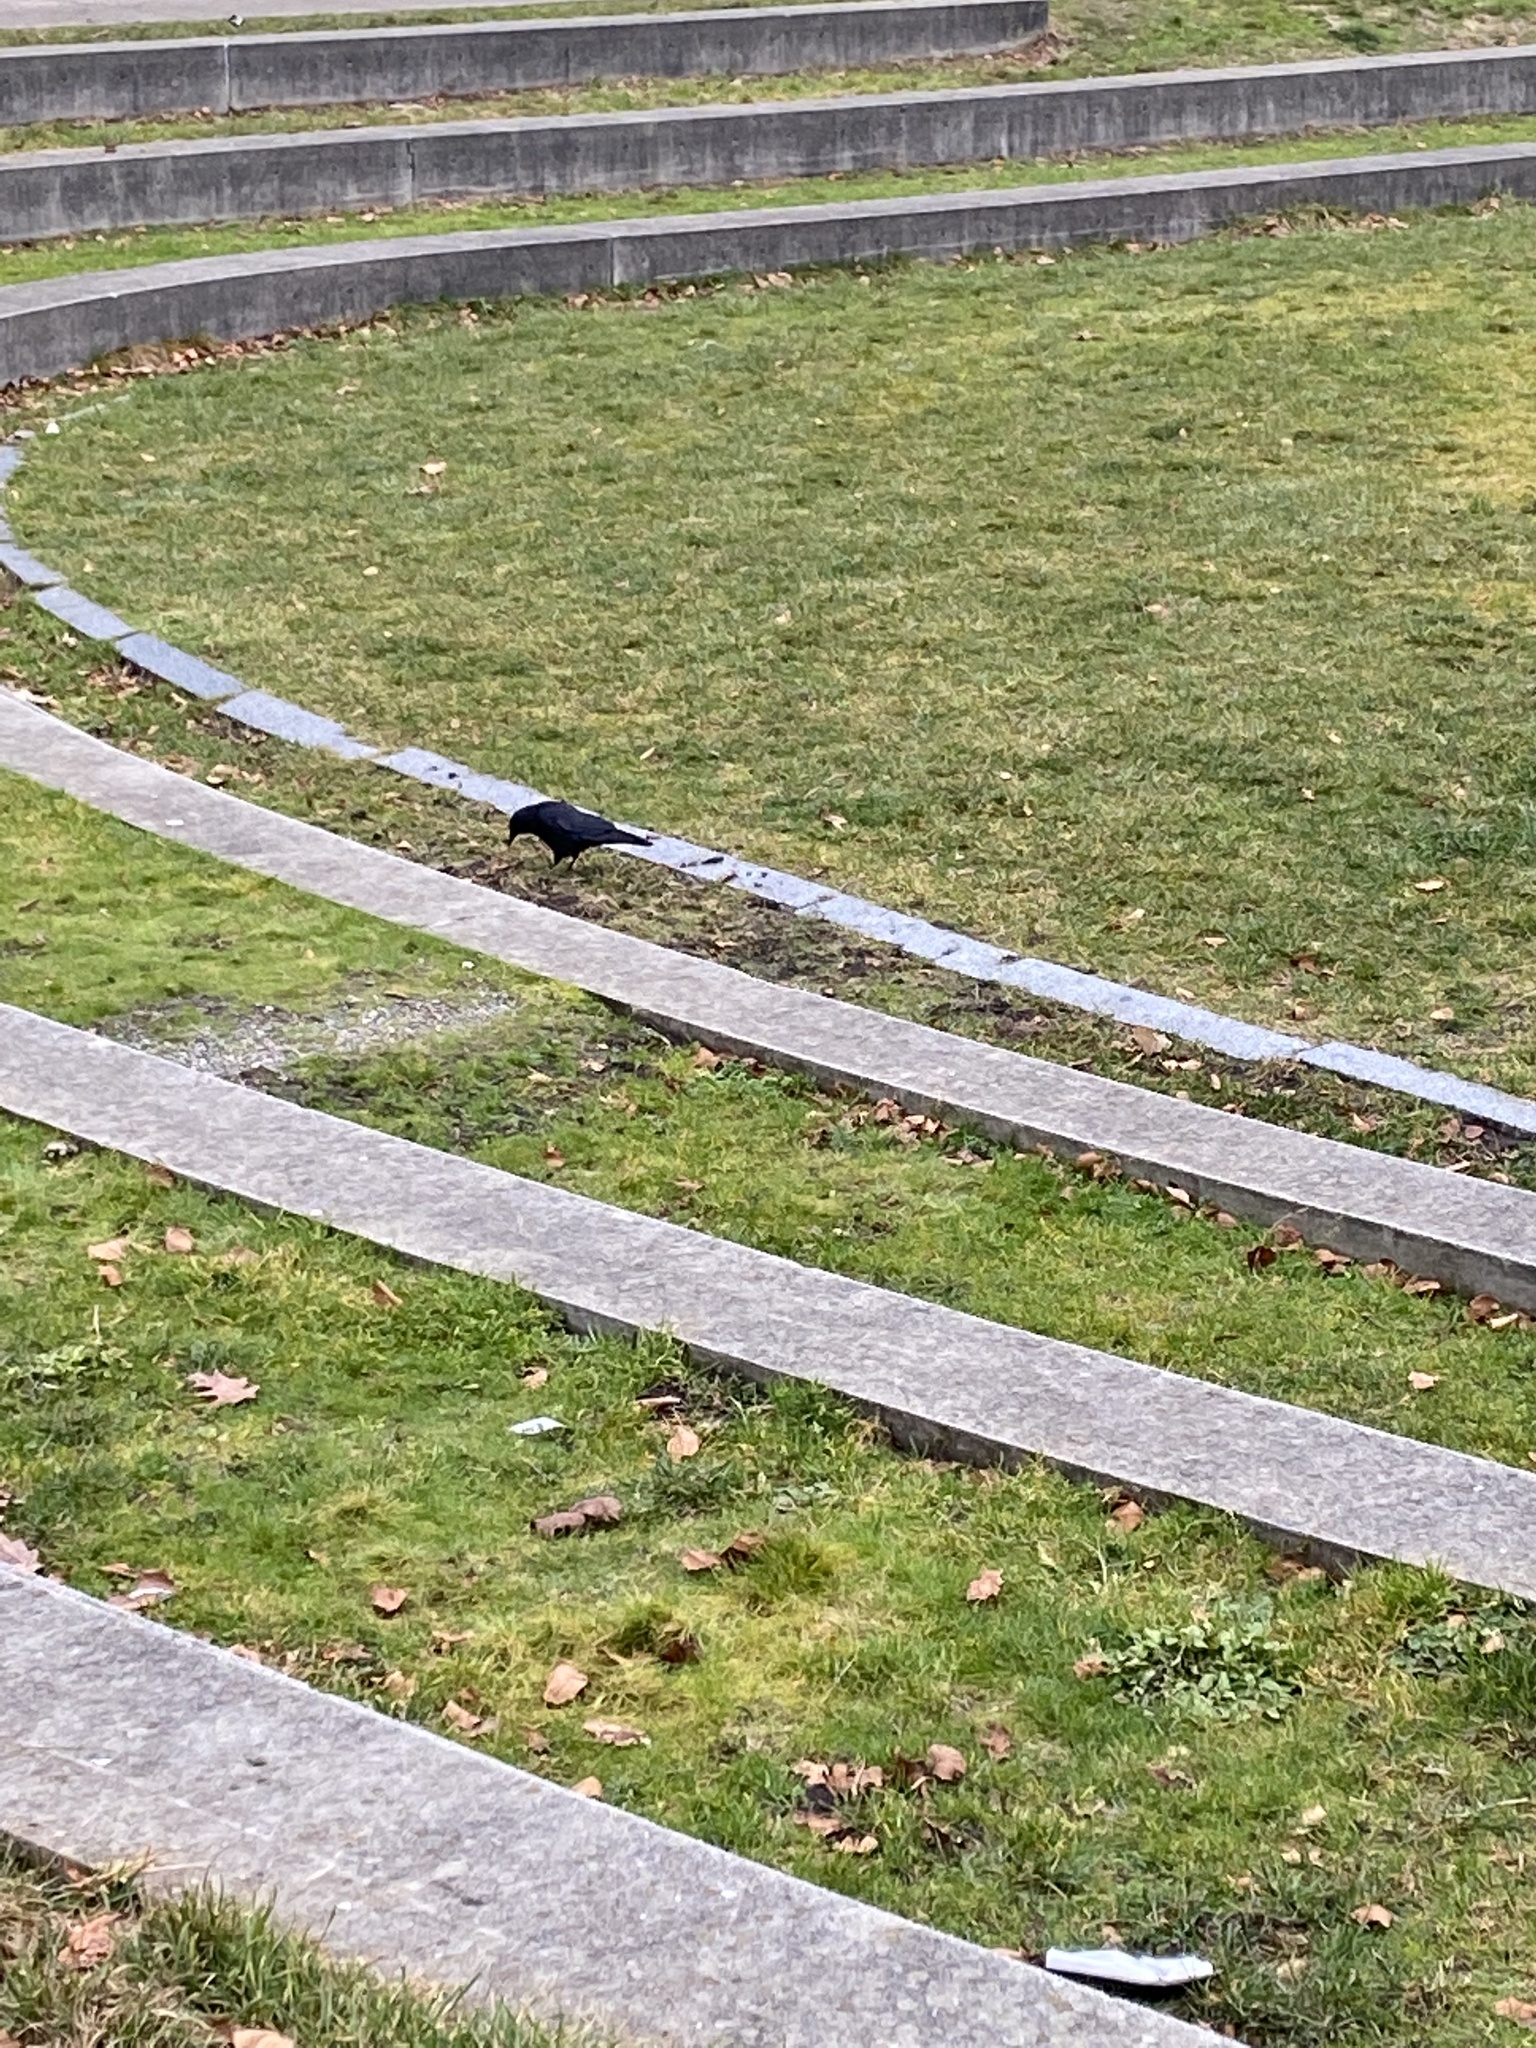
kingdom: Animalia
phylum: Chordata
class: Aves
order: Passeriformes
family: Corvidae
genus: Corvus
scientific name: Corvus brachyrhynchos
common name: American crow
